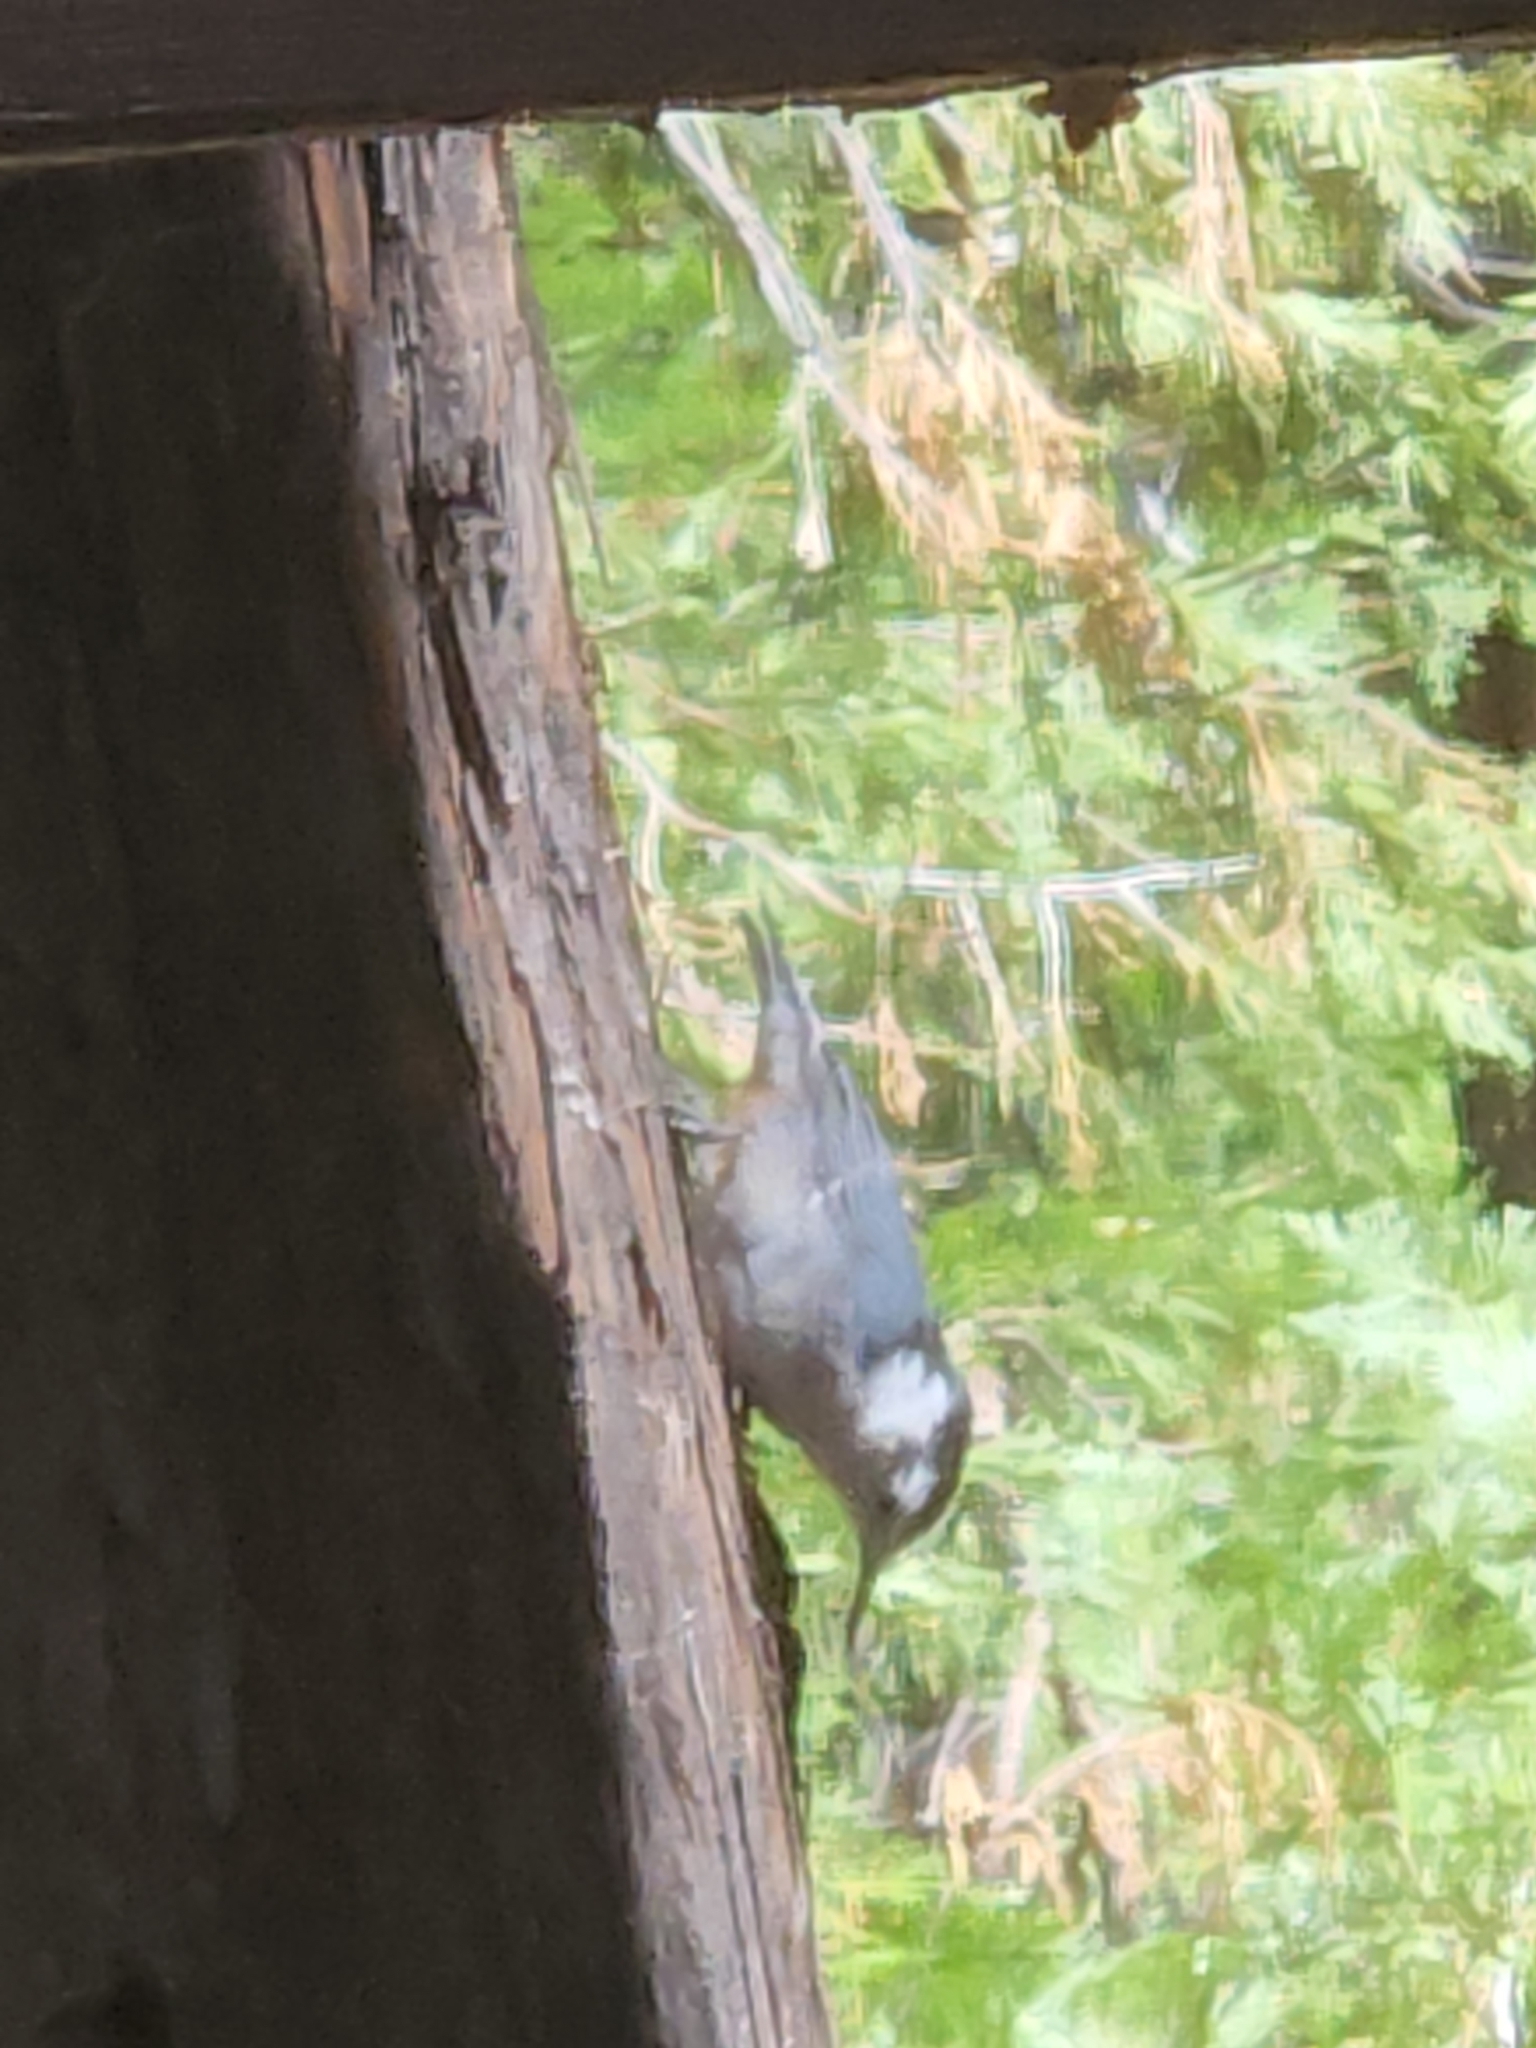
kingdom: Animalia
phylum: Chordata
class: Aves
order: Passeriformes
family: Sittidae
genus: Sitta
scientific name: Sitta carolinensis
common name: White-breasted nuthatch
